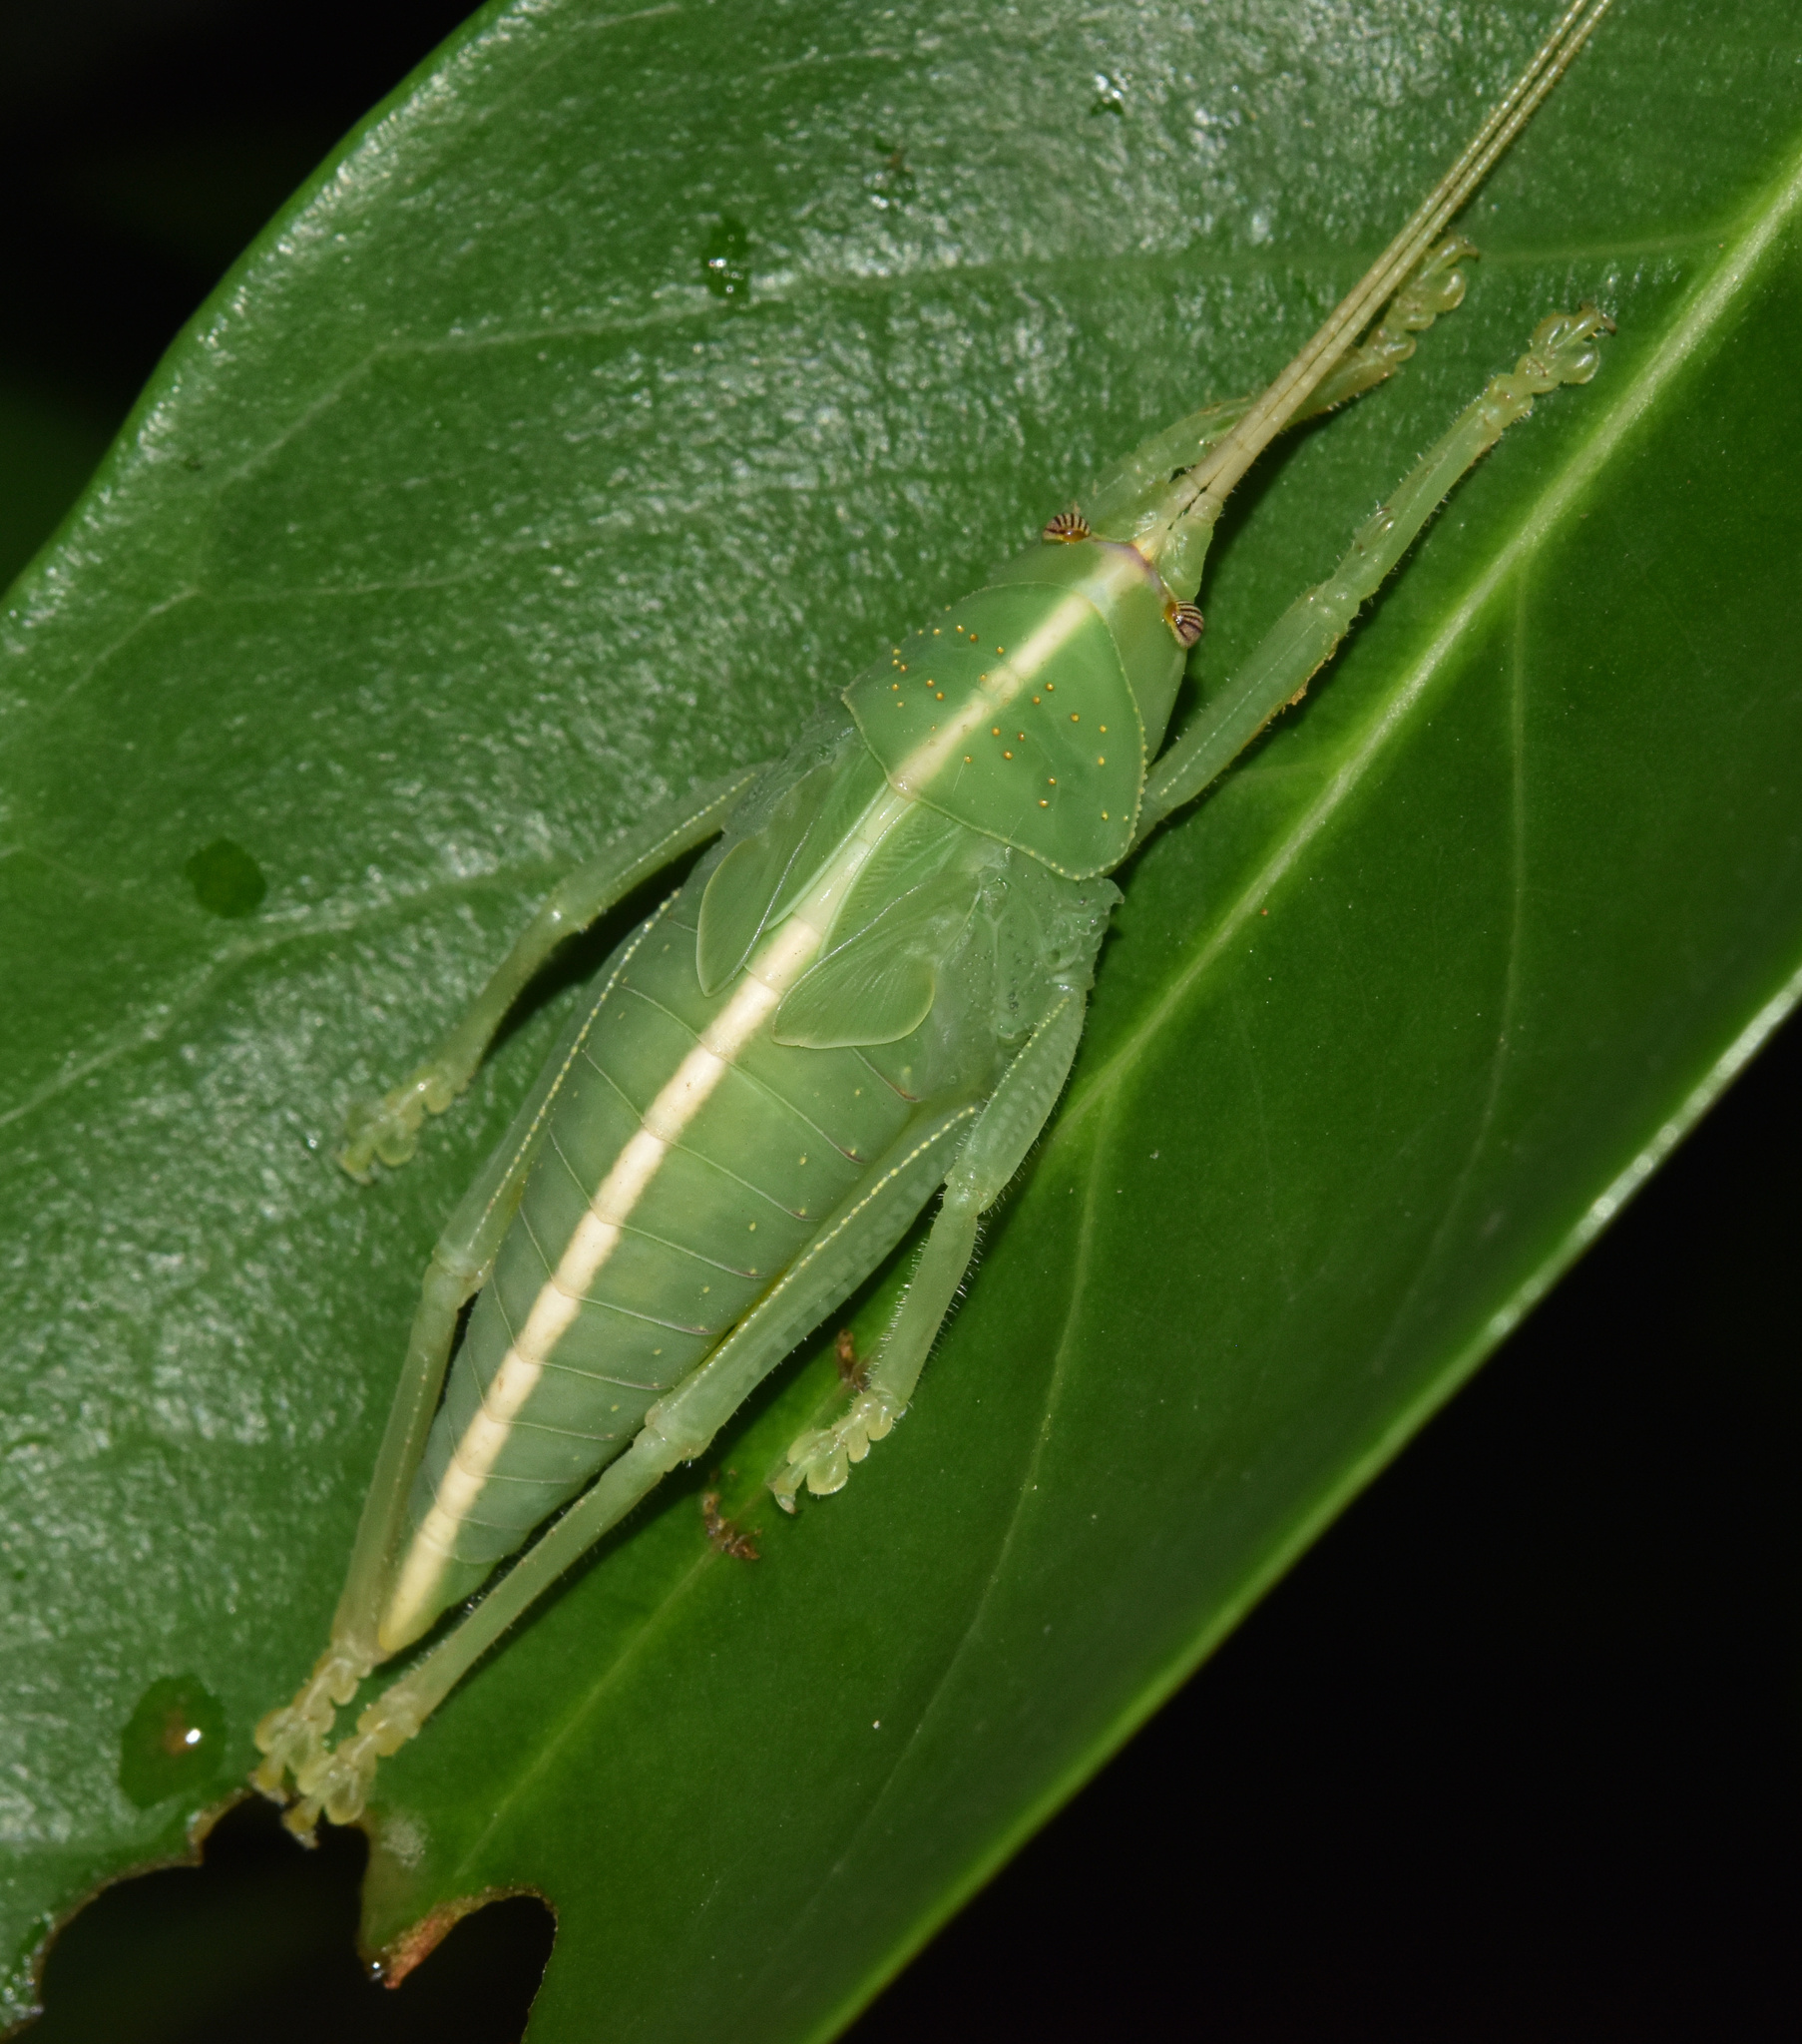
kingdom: Animalia
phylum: Arthropoda
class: Insecta
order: Orthoptera
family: Tettigoniidae
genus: Zabalius
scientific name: Zabalius ophthalmicus
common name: Blue-legged sylvan katydid
